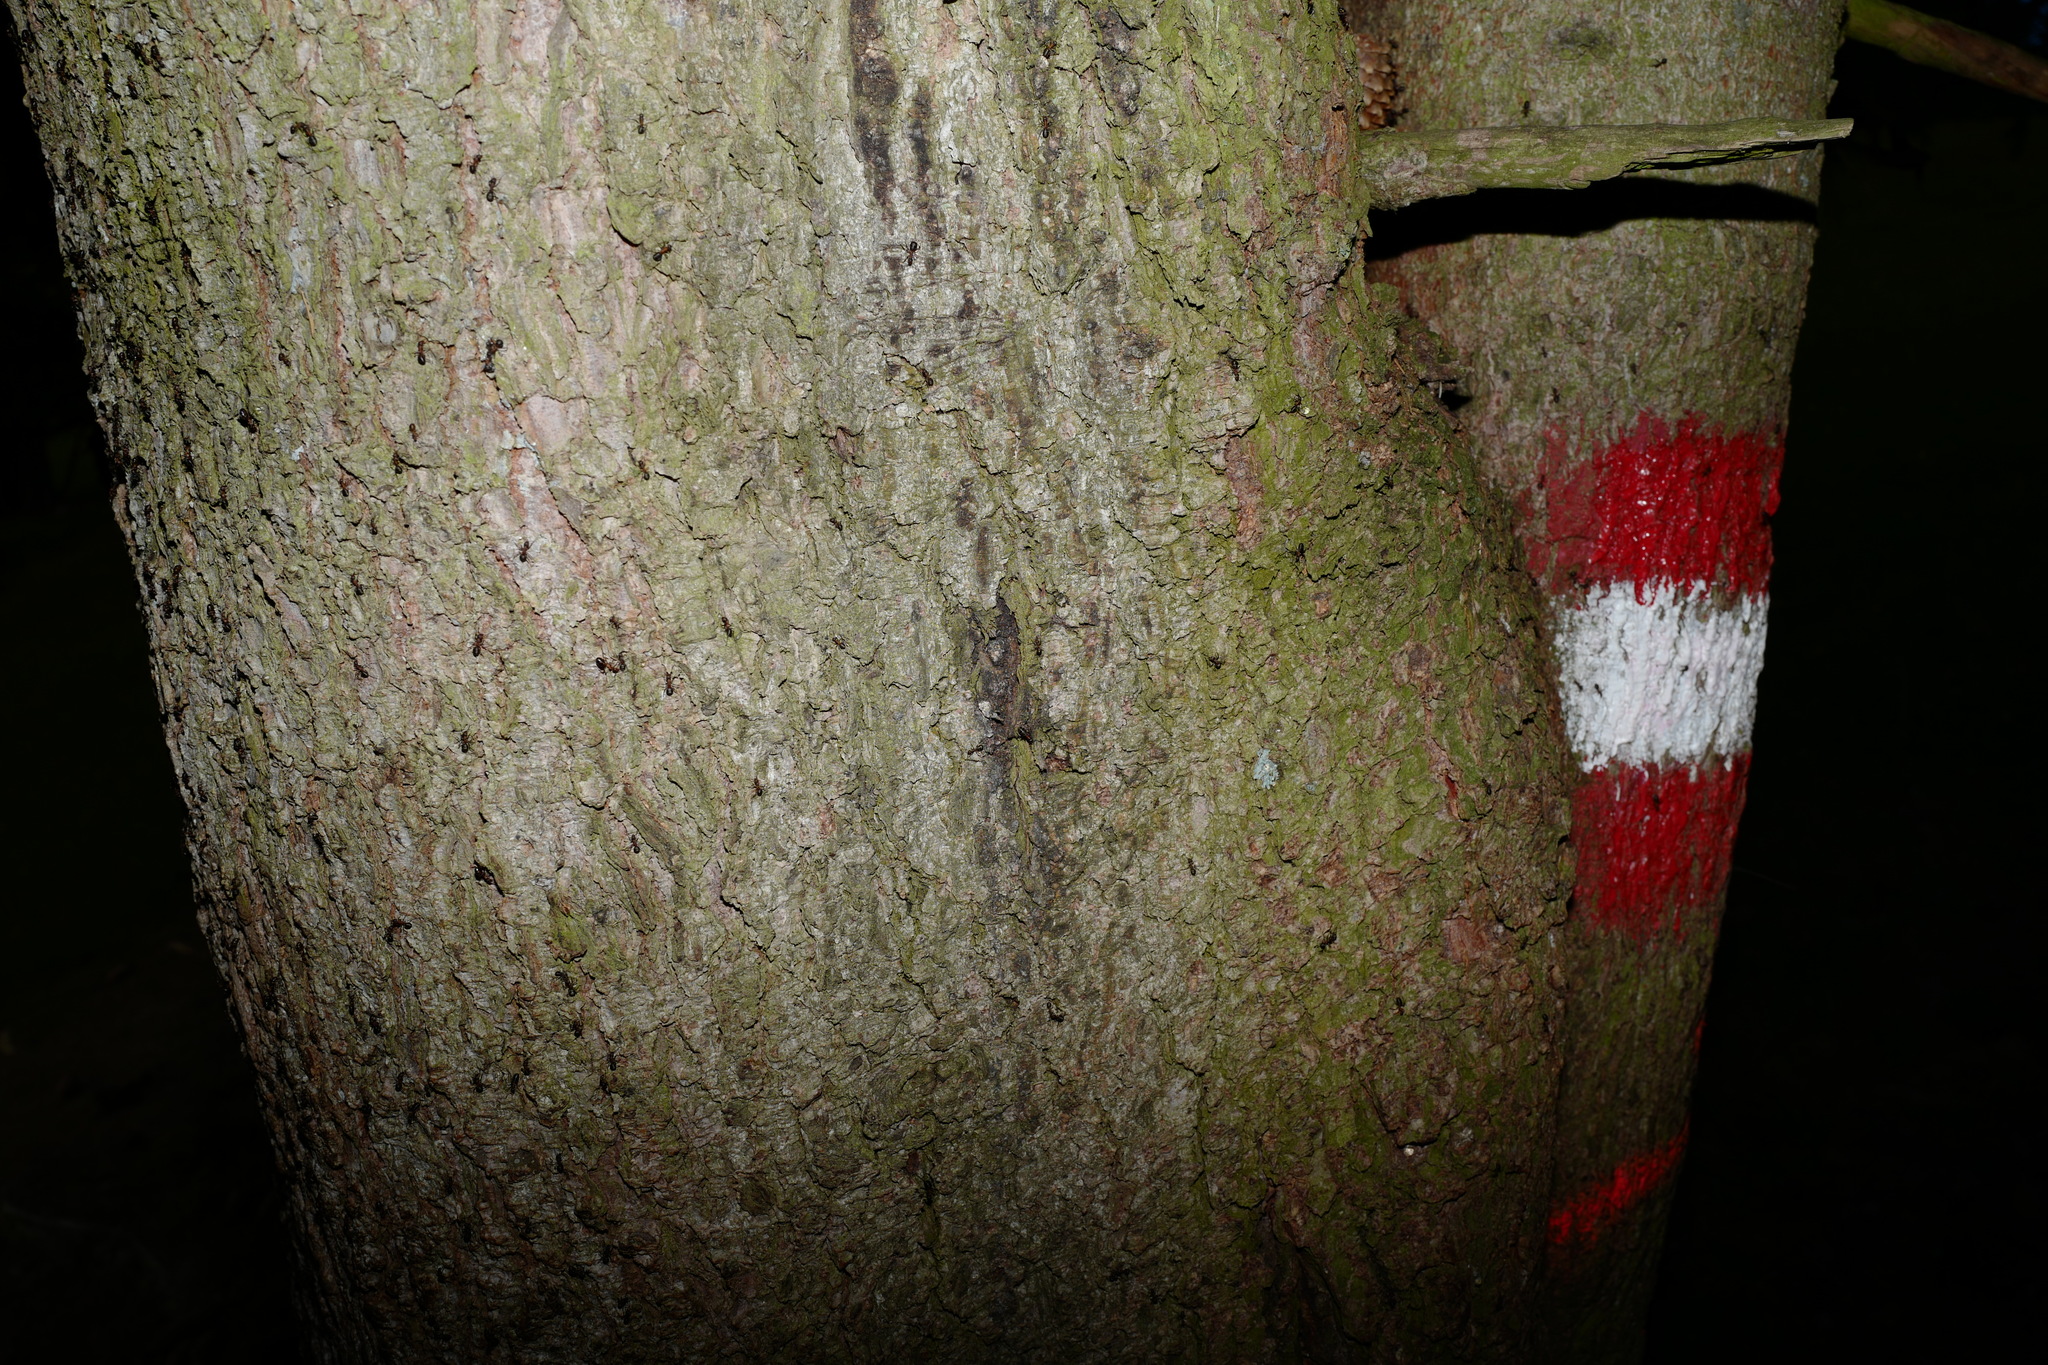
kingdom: Plantae
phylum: Tracheophyta
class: Pinopsida
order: Pinales
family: Pinaceae
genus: Picea
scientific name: Picea abies
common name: Norway spruce
